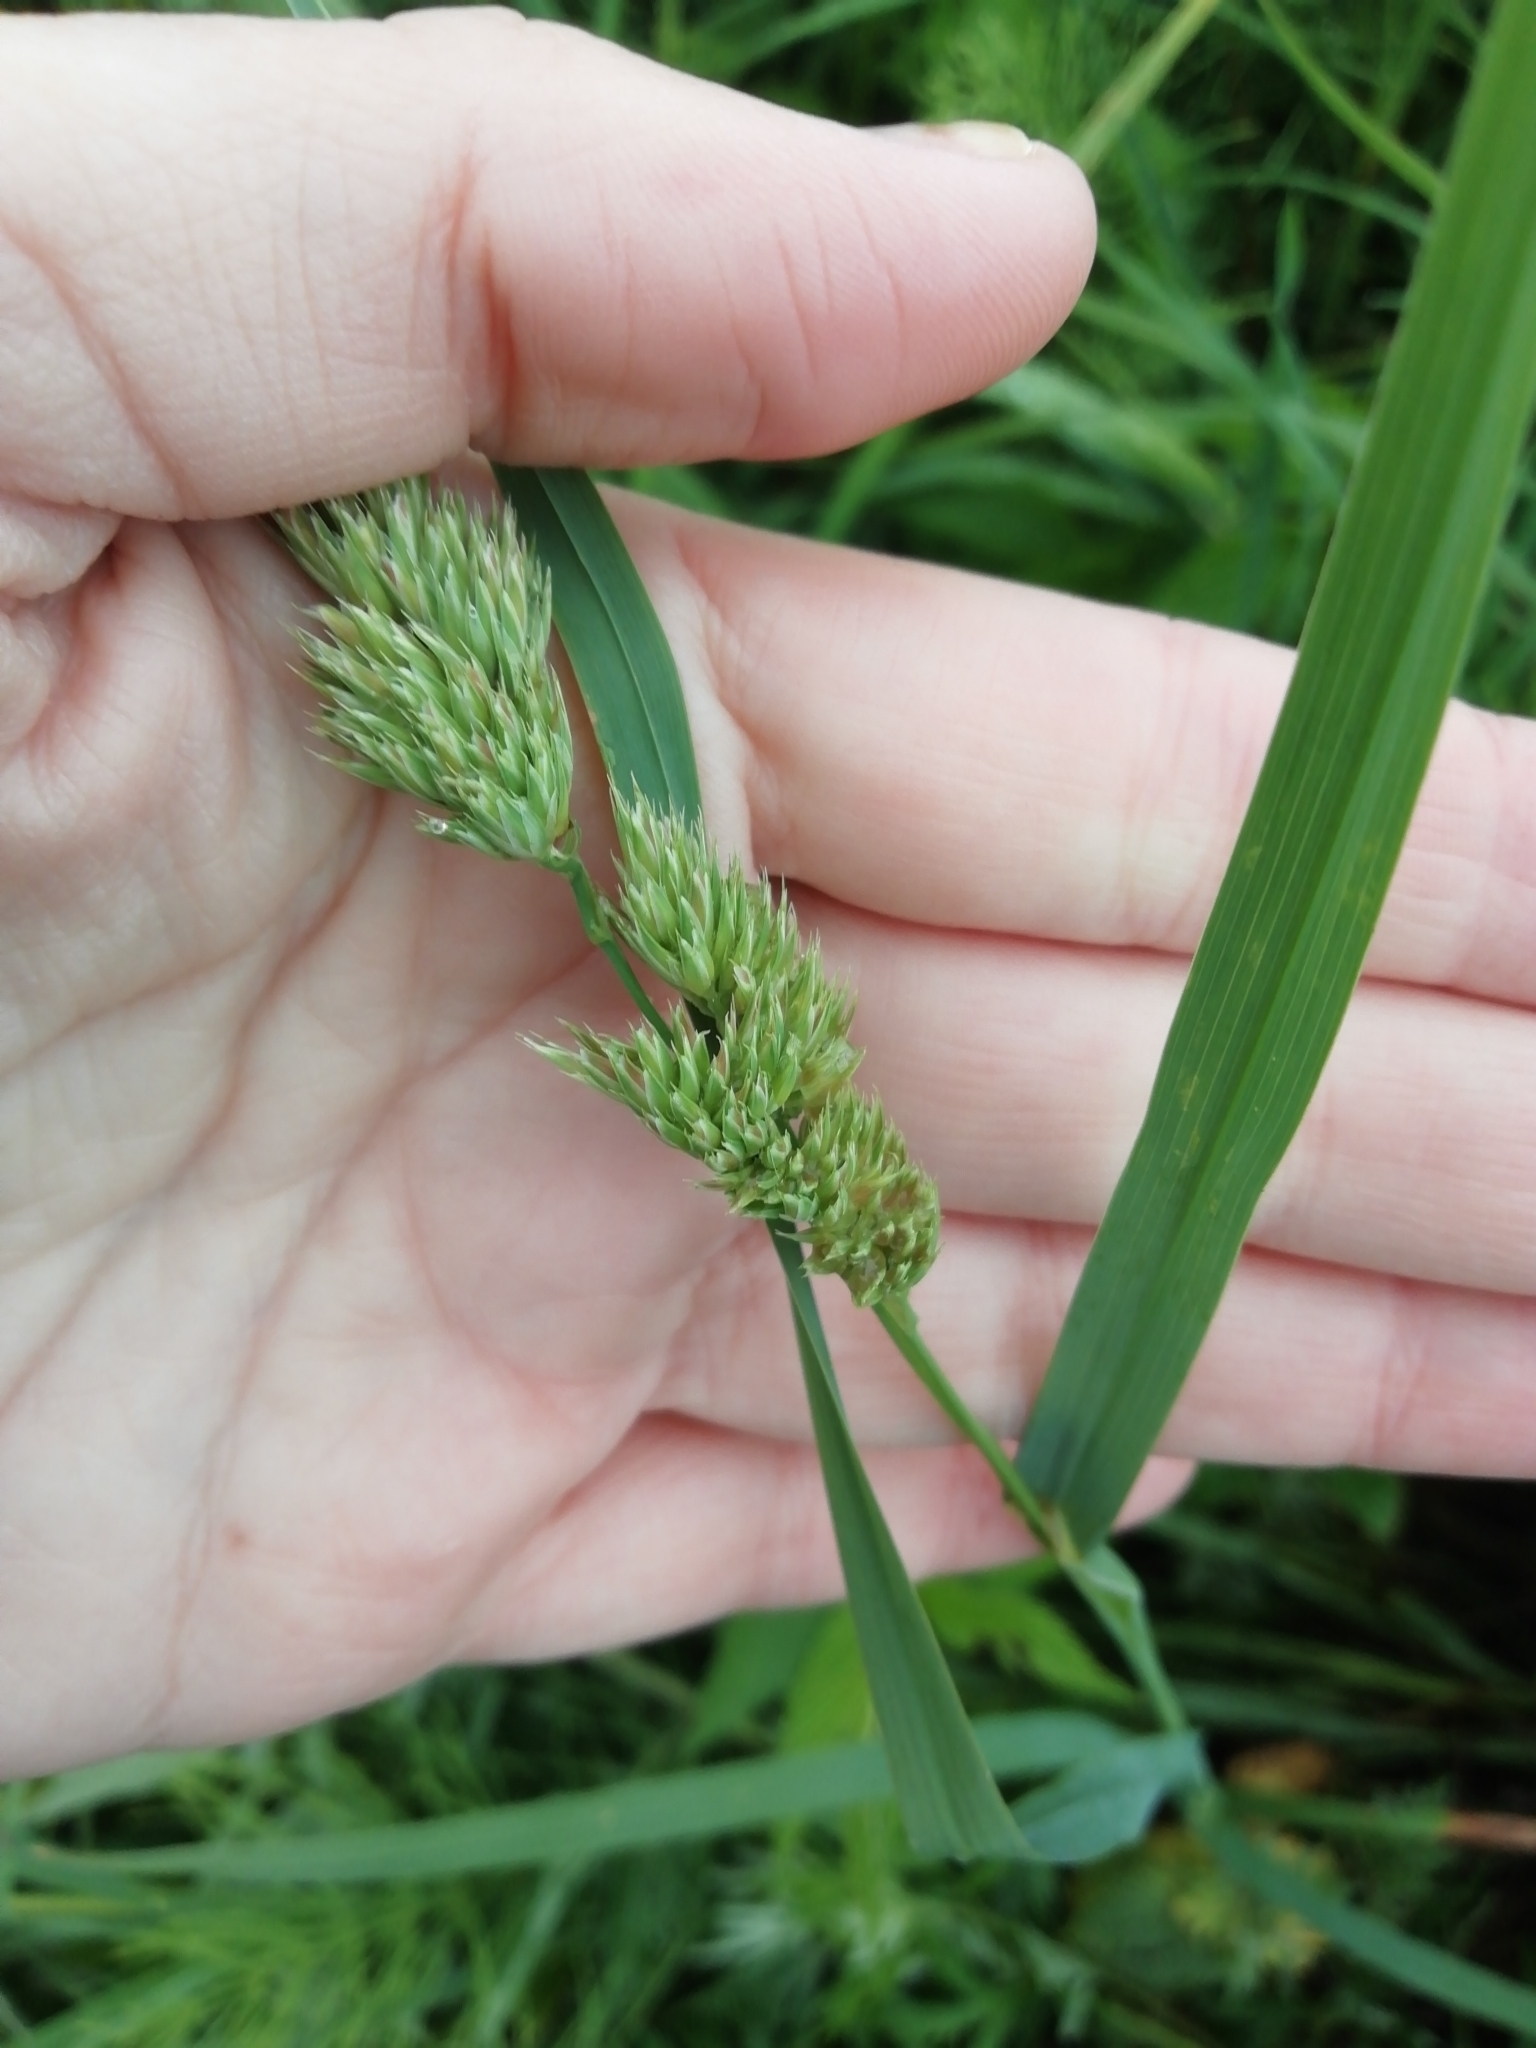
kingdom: Plantae
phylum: Tracheophyta
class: Liliopsida
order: Poales
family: Poaceae
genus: Dactylis
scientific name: Dactylis glomerata
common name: Orchardgrass
